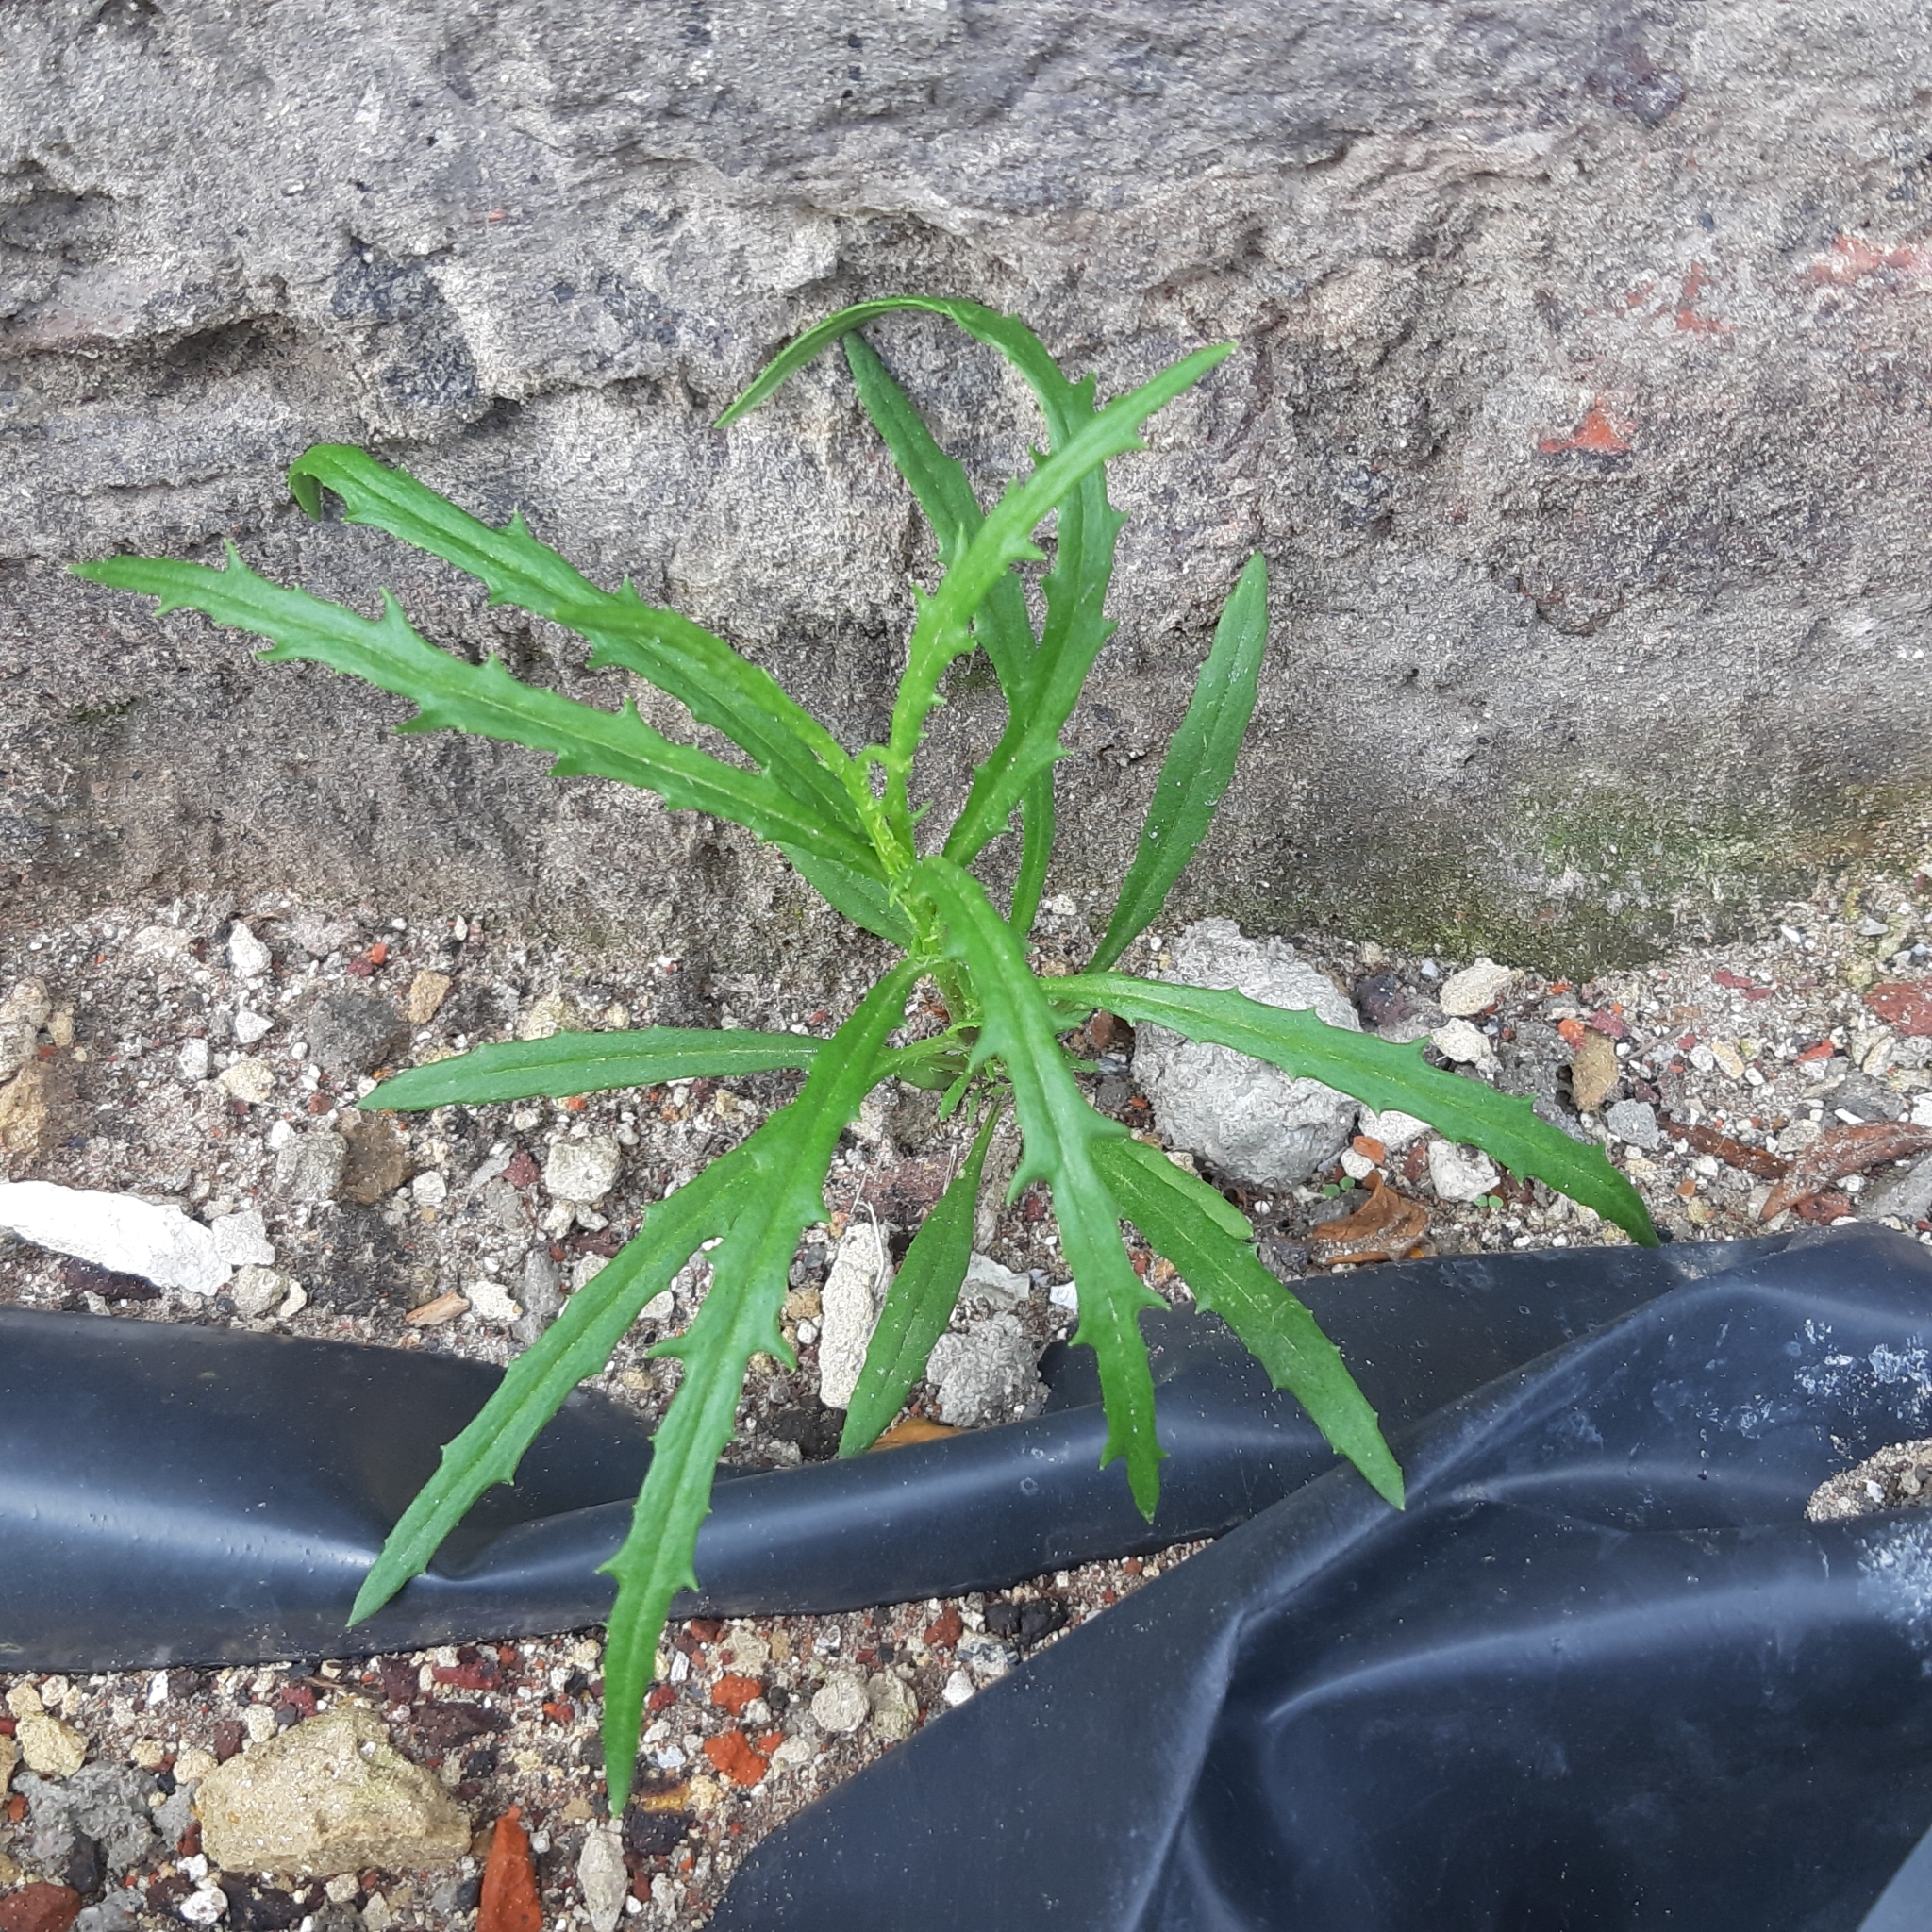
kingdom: Plantae
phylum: Tracheophyta
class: Magnoliopsida
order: Asterales
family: Asteraceae
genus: Senecio
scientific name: Senecio inaequidens
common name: Narrow-leaved ragwort
